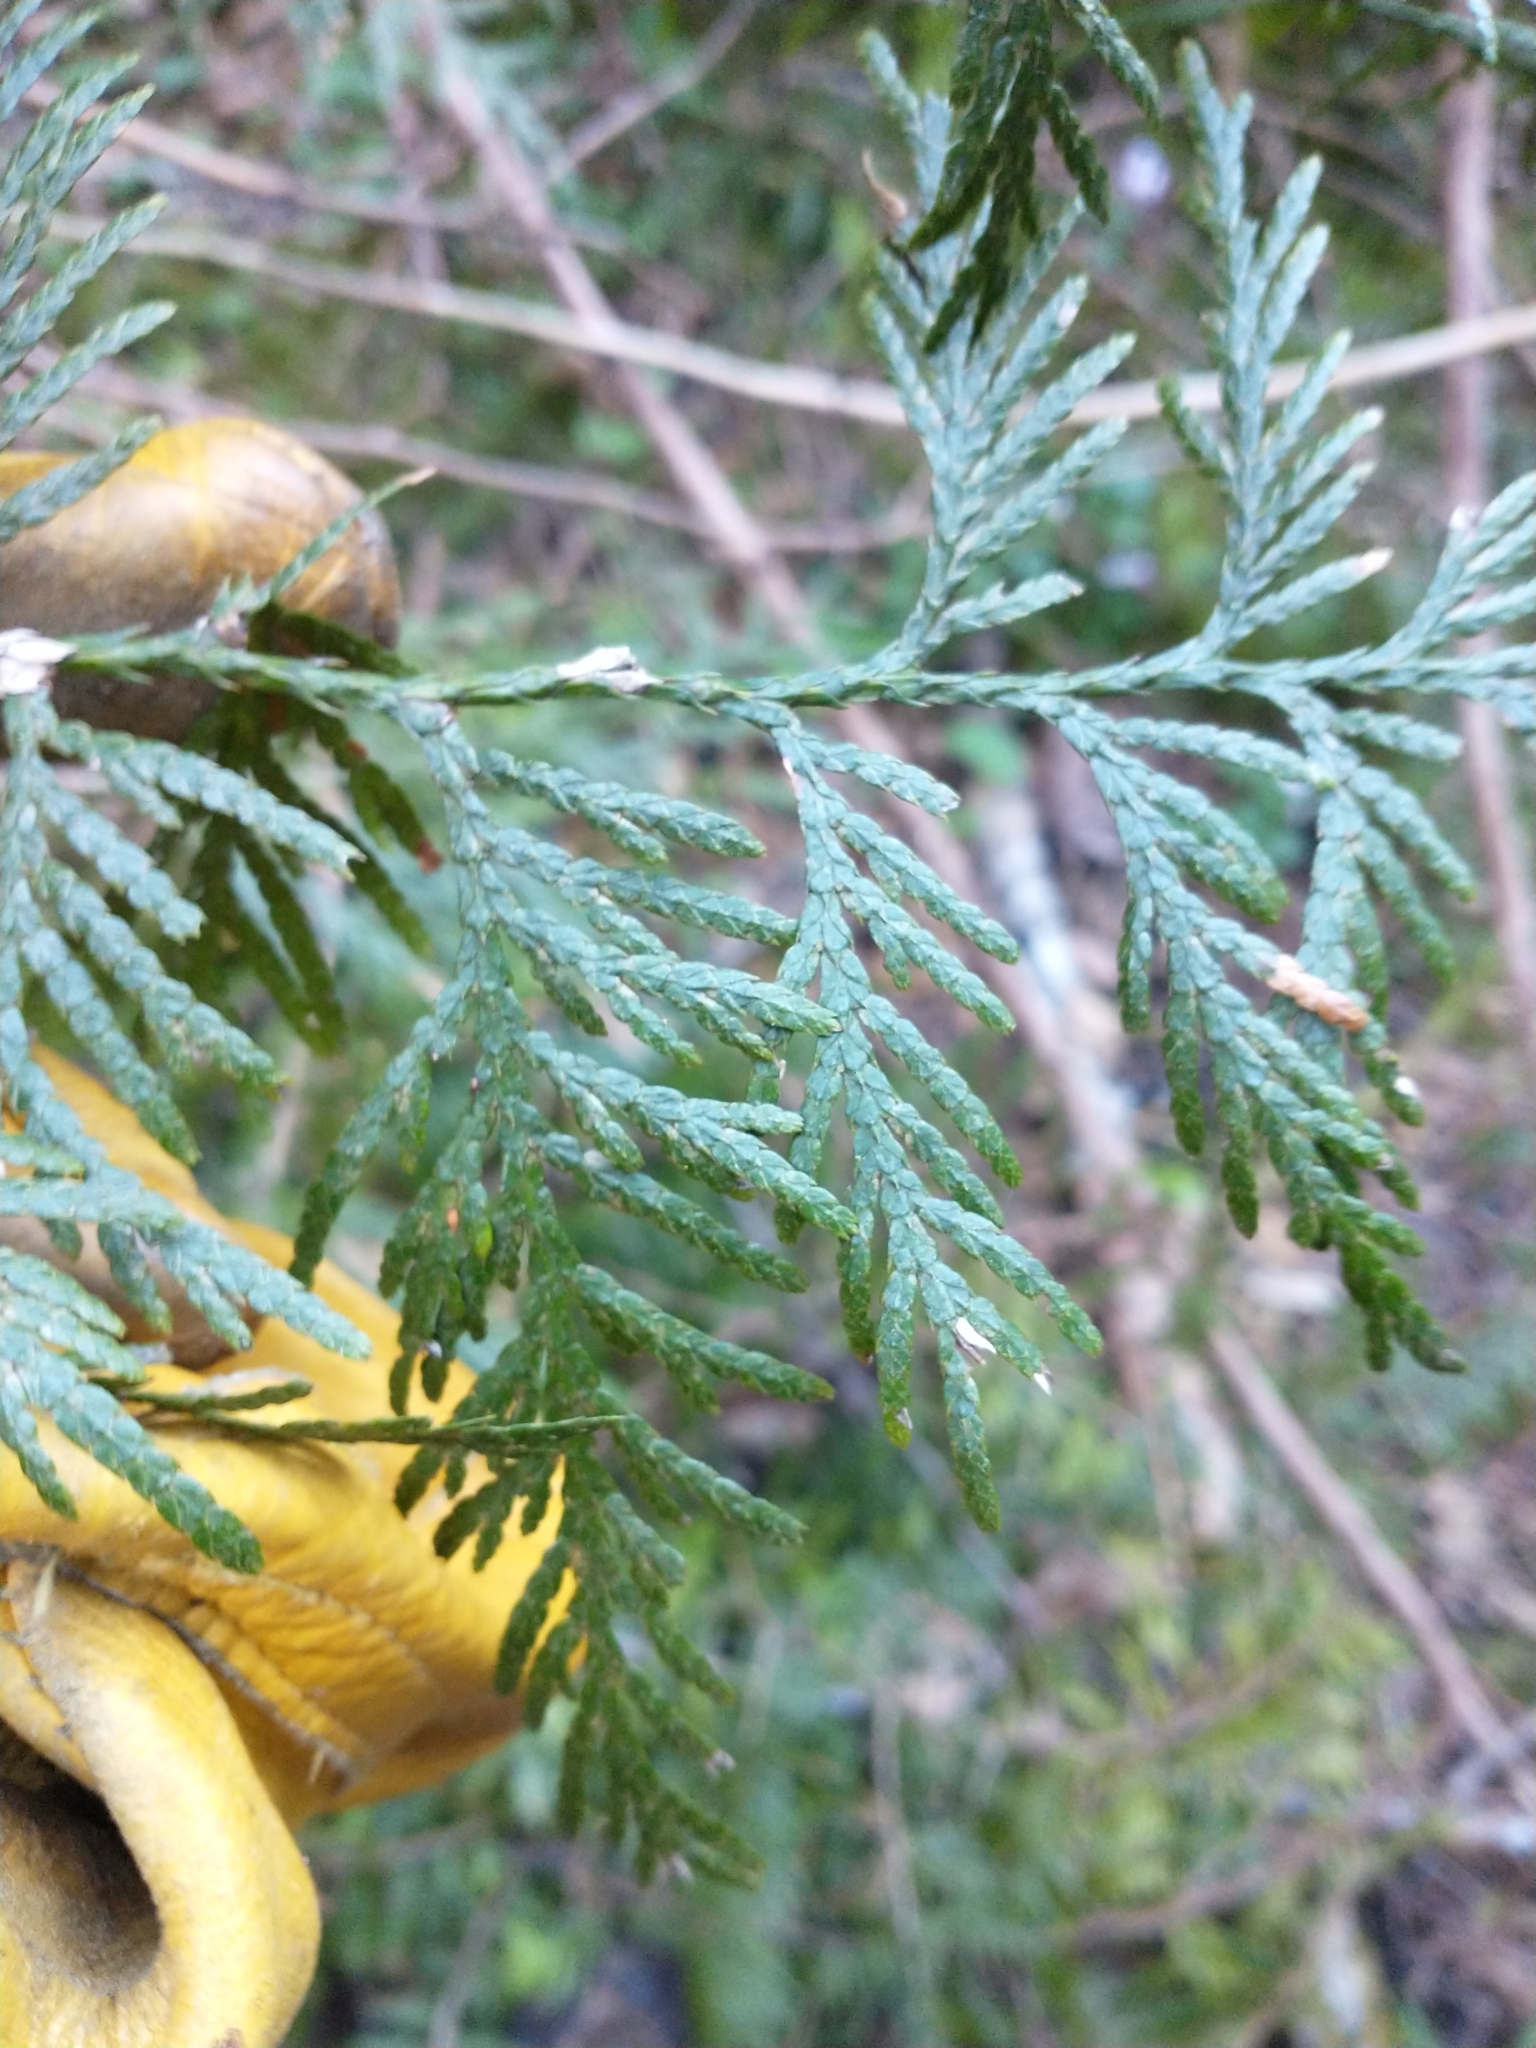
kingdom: Plantae
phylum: Tracheophyta
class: Pinopsida
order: Pinales
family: Cupressaceae
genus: Thuja
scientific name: Thuja plicata
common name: Western red-cedar
